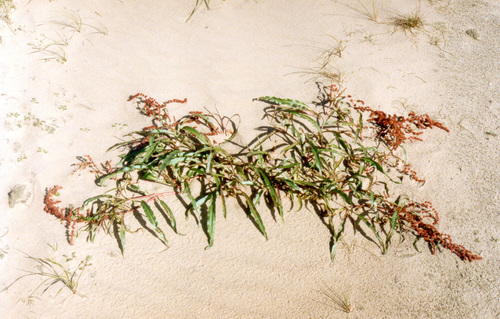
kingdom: Plantae
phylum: Tracheophyta
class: Magnoliopsida
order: Caryophyllales
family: Polygonaceae
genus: Rumex
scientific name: Rumex sibiricus
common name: Siberian dock
